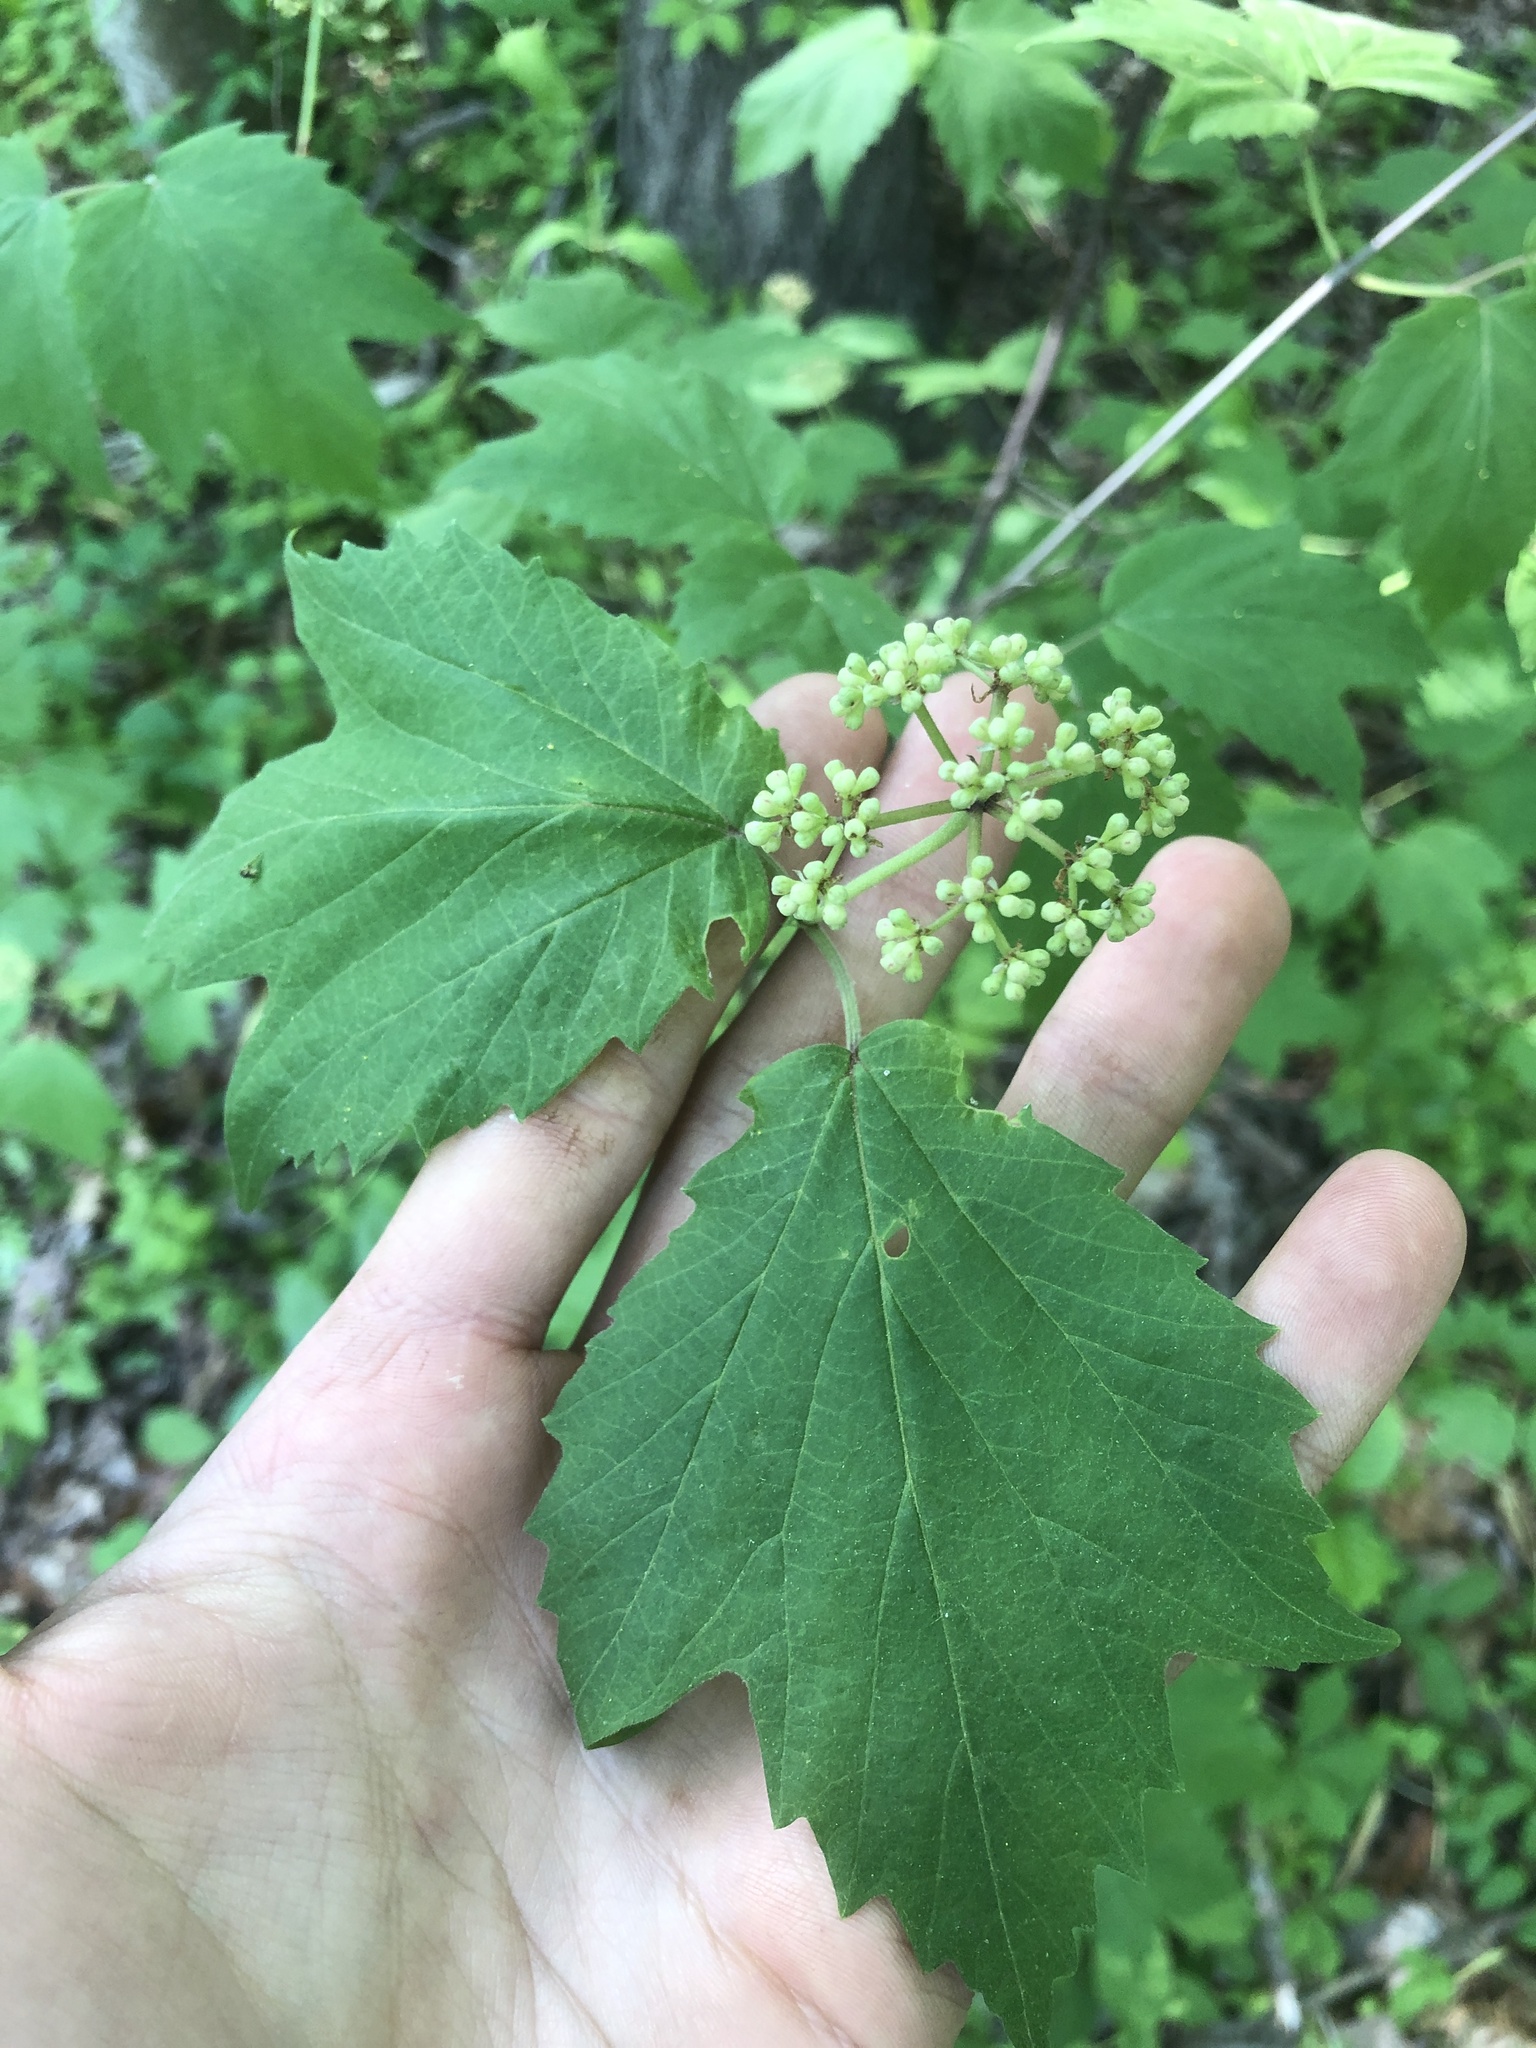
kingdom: Plantae
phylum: Tracheophyta
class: Magnoliopsida
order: Dipsacales
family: Viburnaceae
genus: Viburnum
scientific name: Viburnum acerifolium
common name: Dockmackie
